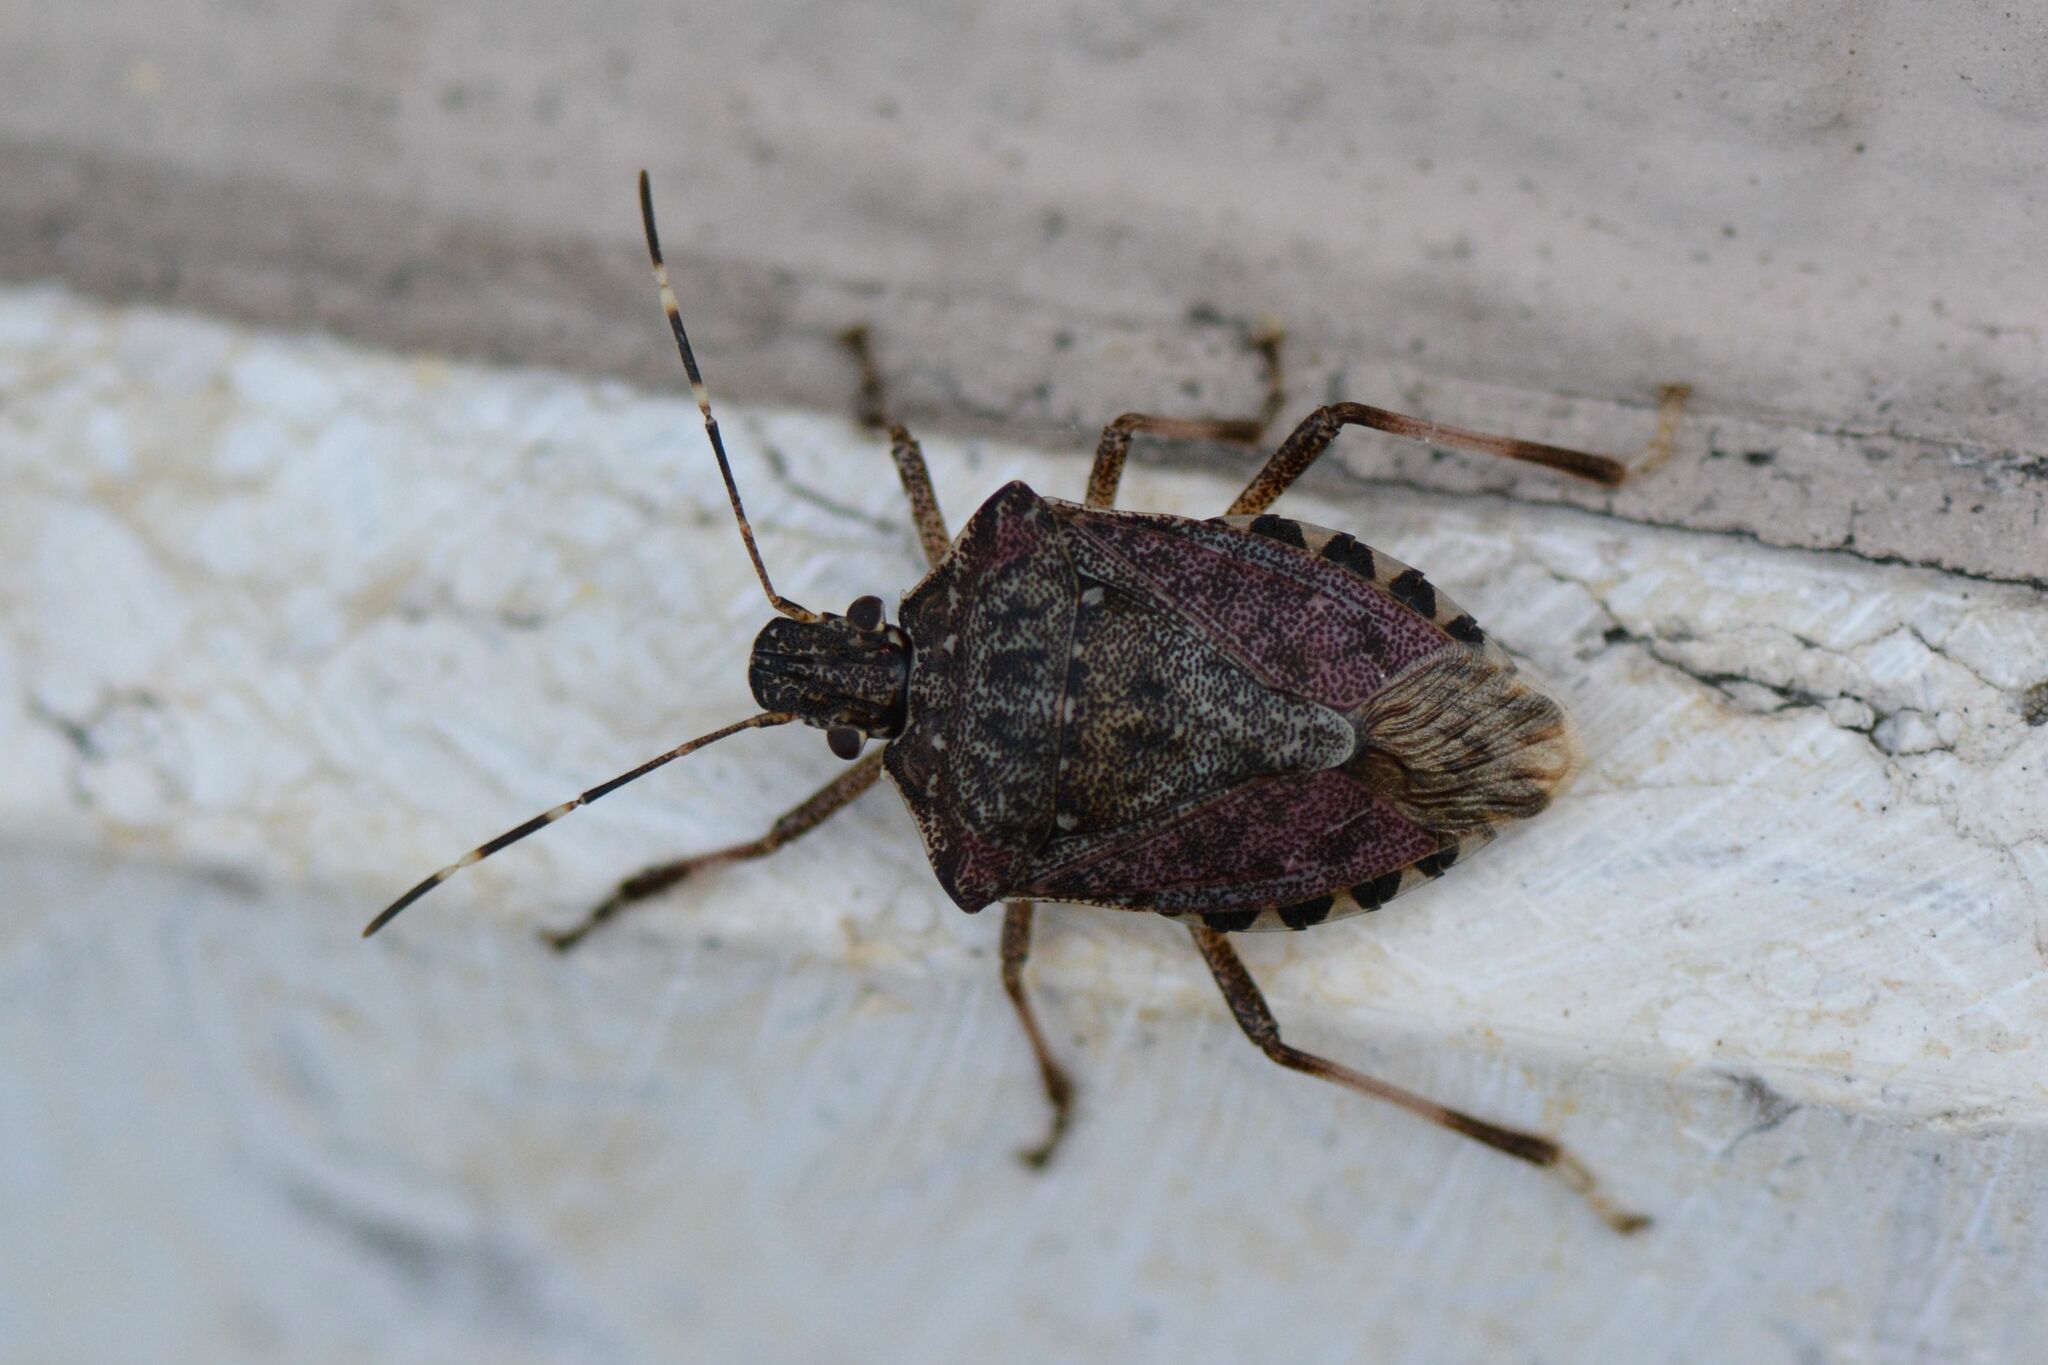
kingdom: Animalia
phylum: Arthropoda
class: Insecta
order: Hemiptera
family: Pentatomidae
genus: Halyomorpha
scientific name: Halyomorpha halys
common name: Brown marmorated stink bug
